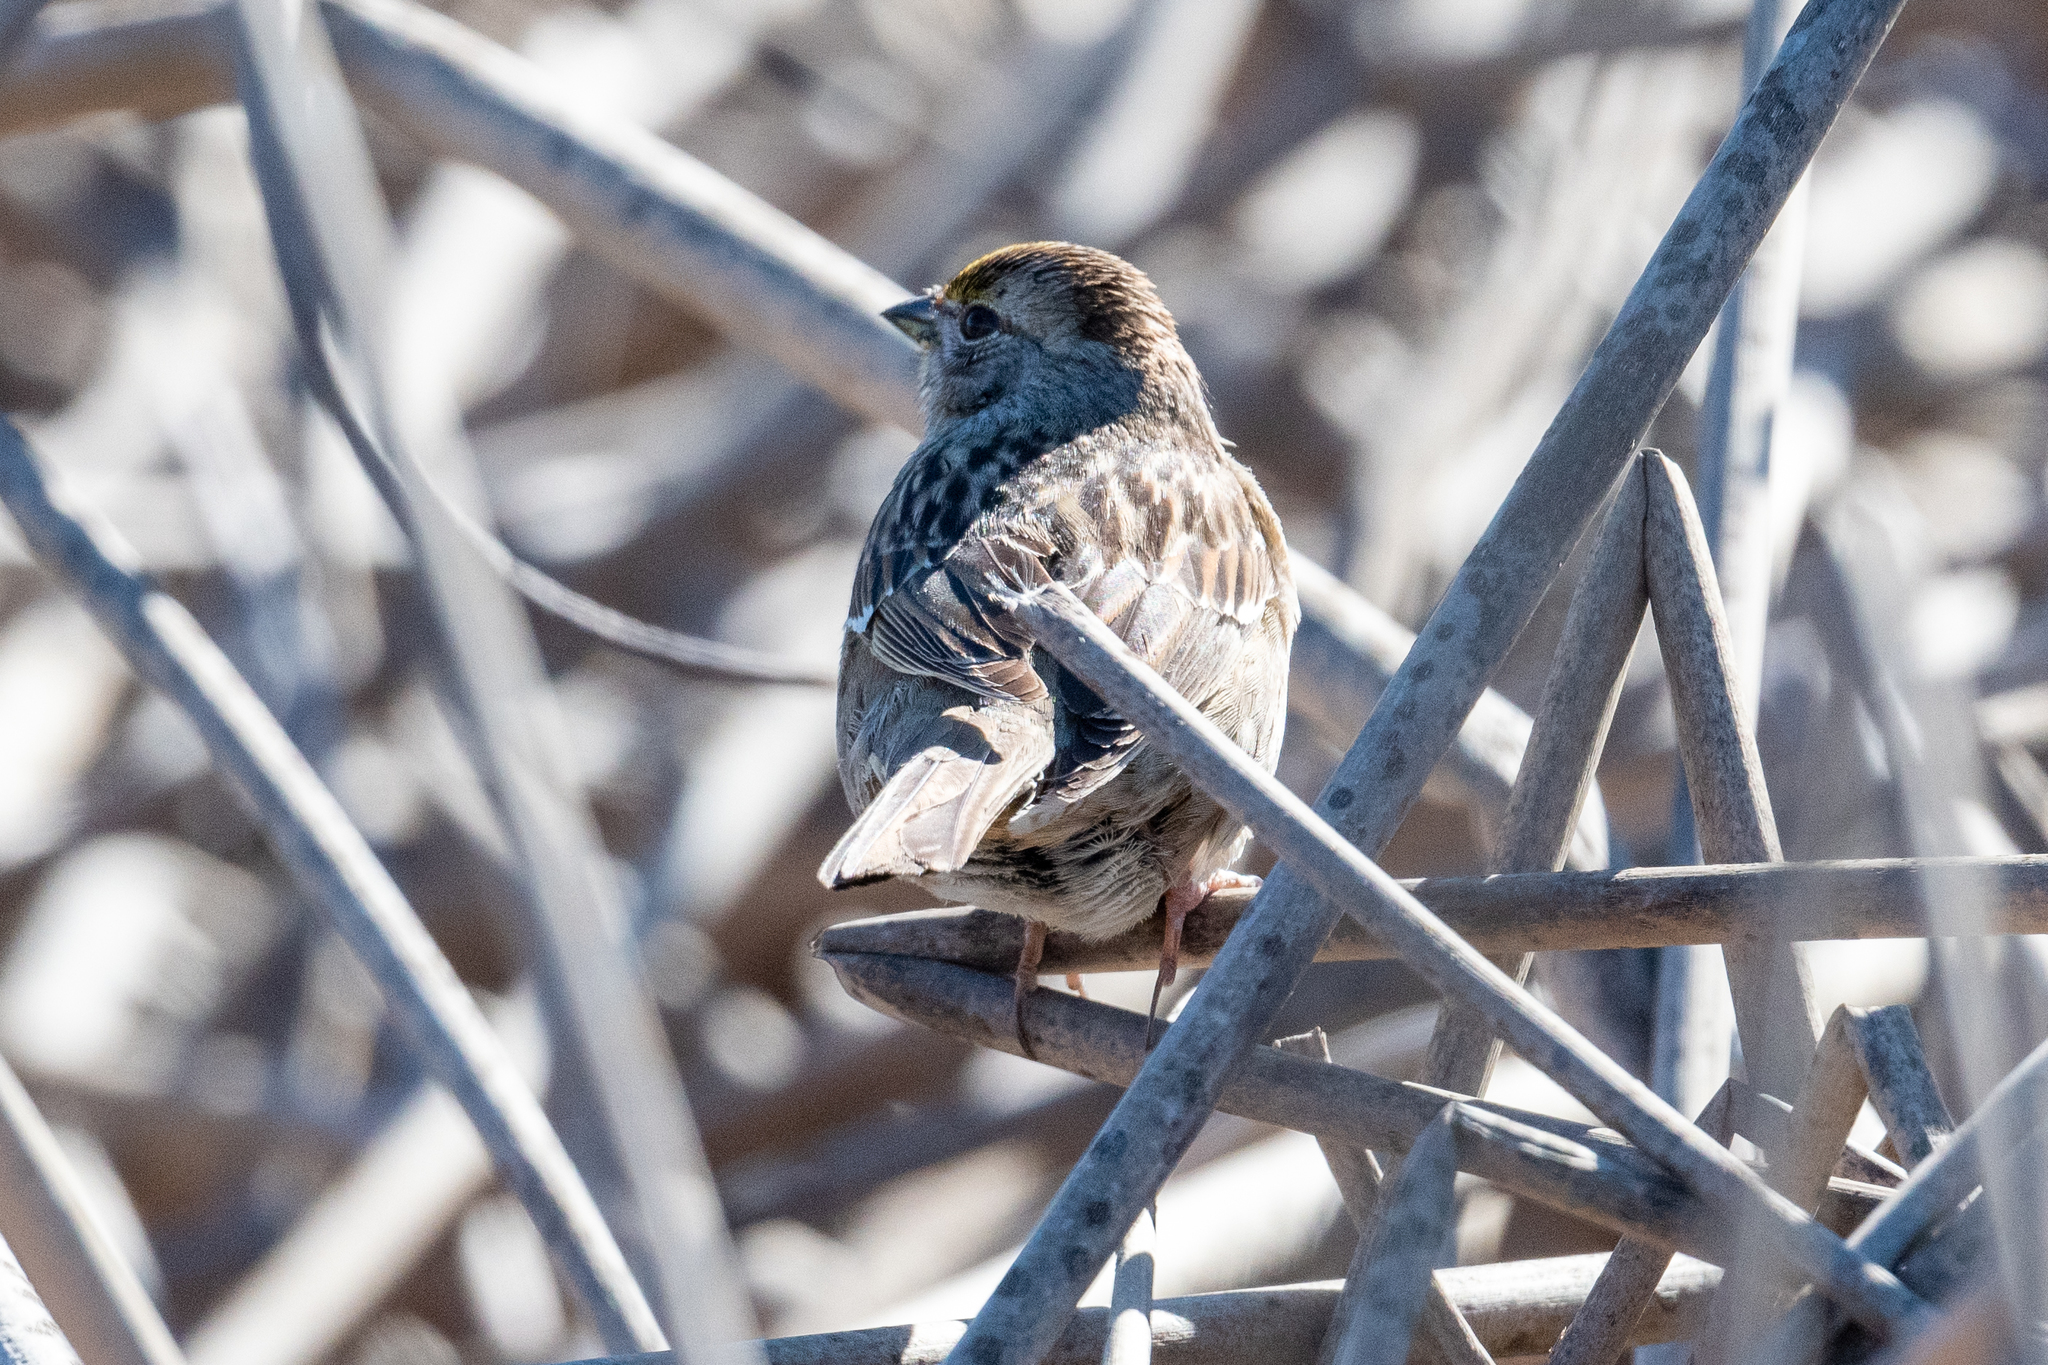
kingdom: Animalia
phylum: Chordata
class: Aves
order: Passeriformes
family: Passerellidae
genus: Zonotrichia
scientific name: Zonotrichia atricapilla
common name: Golden-crowned sparrow
